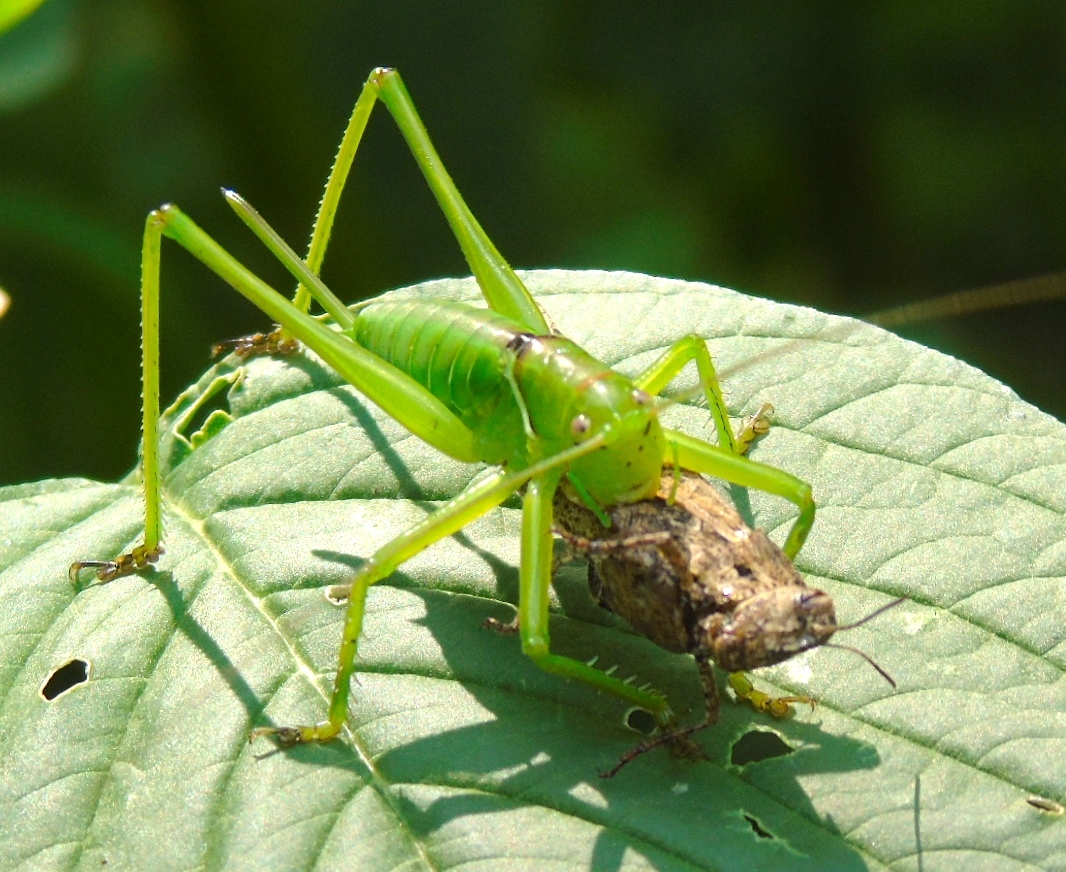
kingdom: Animalia
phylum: Arthropoda
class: Insecta
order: Orthoptera
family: Tettigoniidae
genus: Neobarrettia
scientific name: Neobarrettia sinaloae
